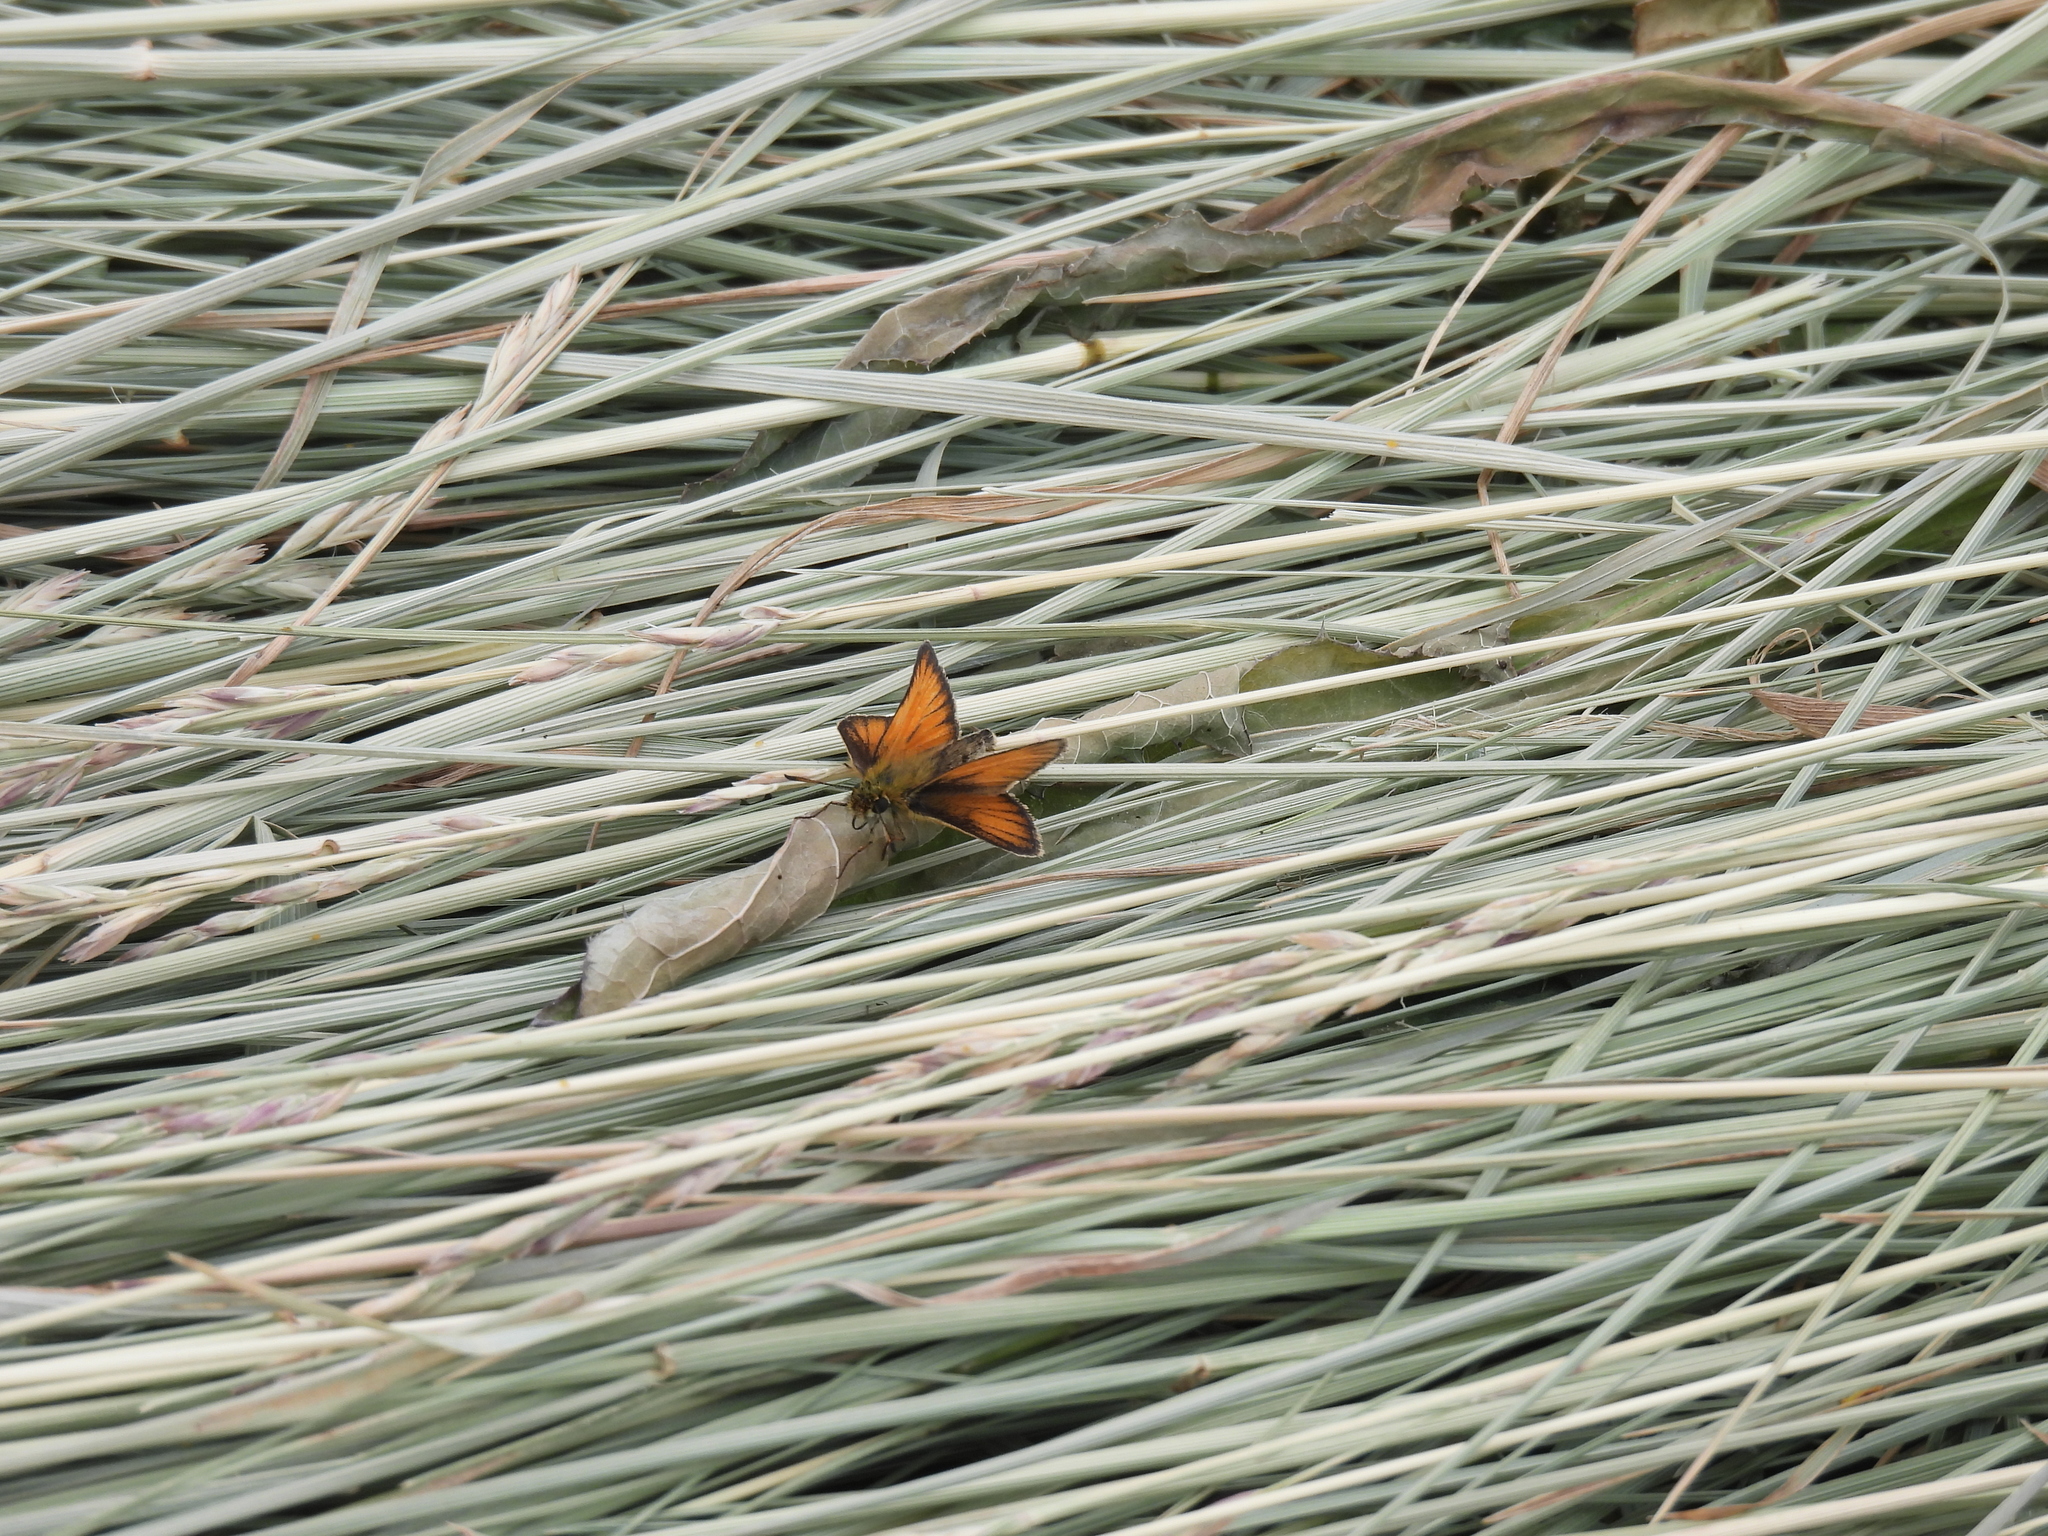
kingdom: Animalia
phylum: Arthropoda
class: Insecta
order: Lepidoptera
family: Hesperiidae
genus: Thymelicus
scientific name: Thymelicus lineola
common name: Essex skipper
